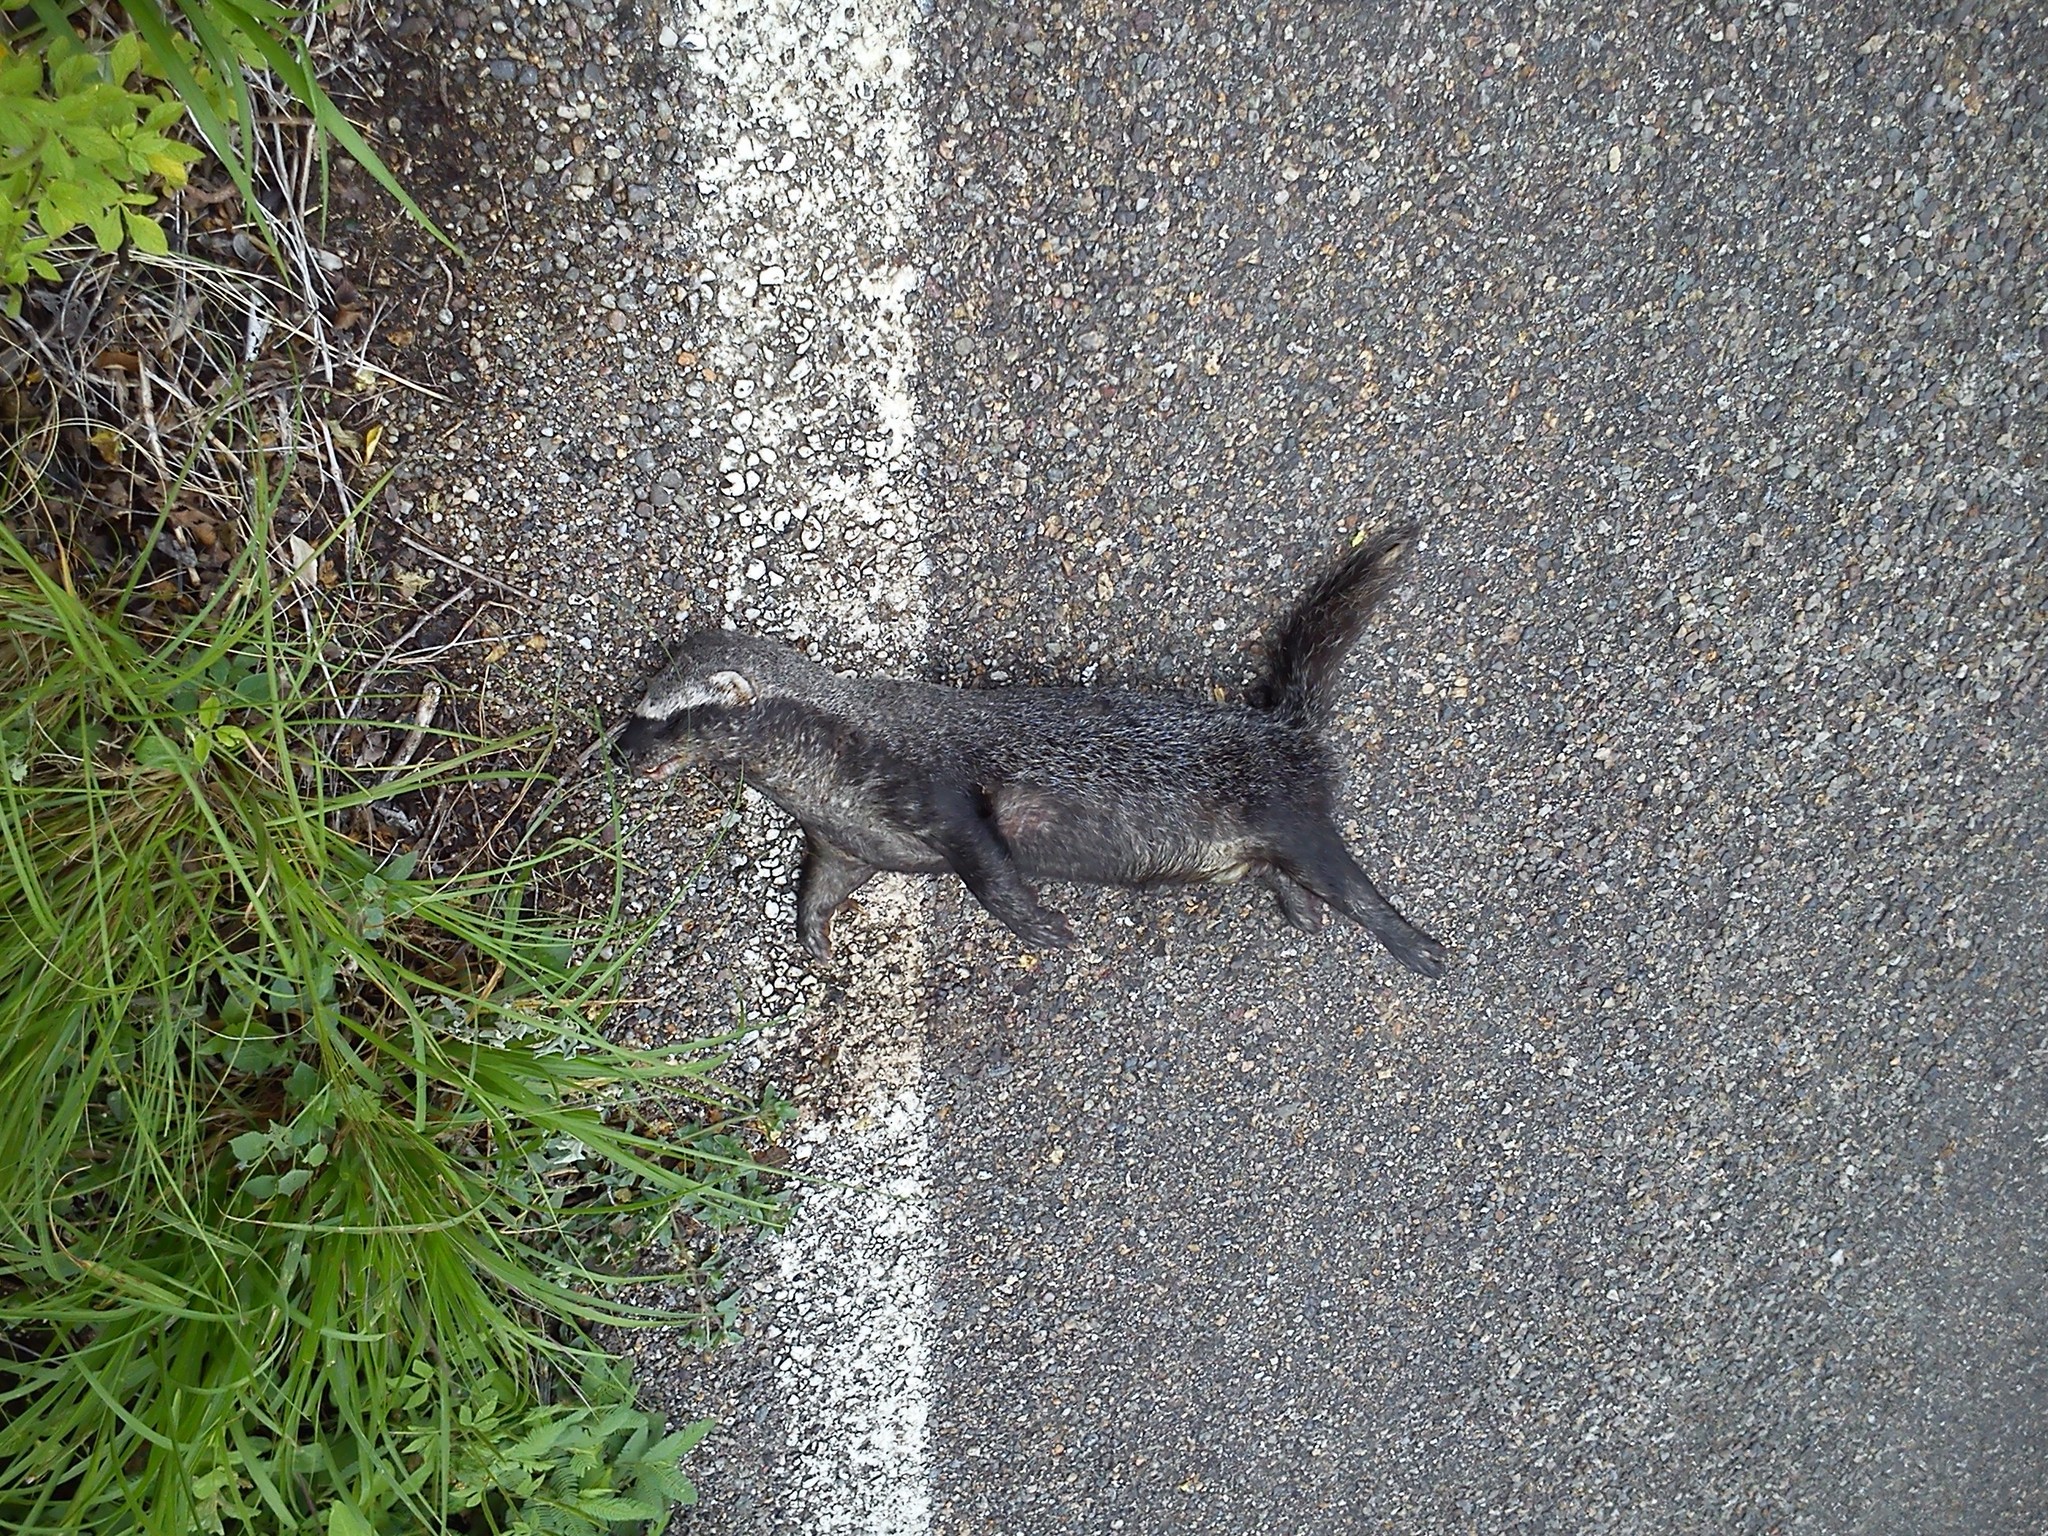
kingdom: Animalia
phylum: Chordata
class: Mammalia
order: Carnivora
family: Mustelidae
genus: Galictis
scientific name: Galictis vittata
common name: Greater grison
